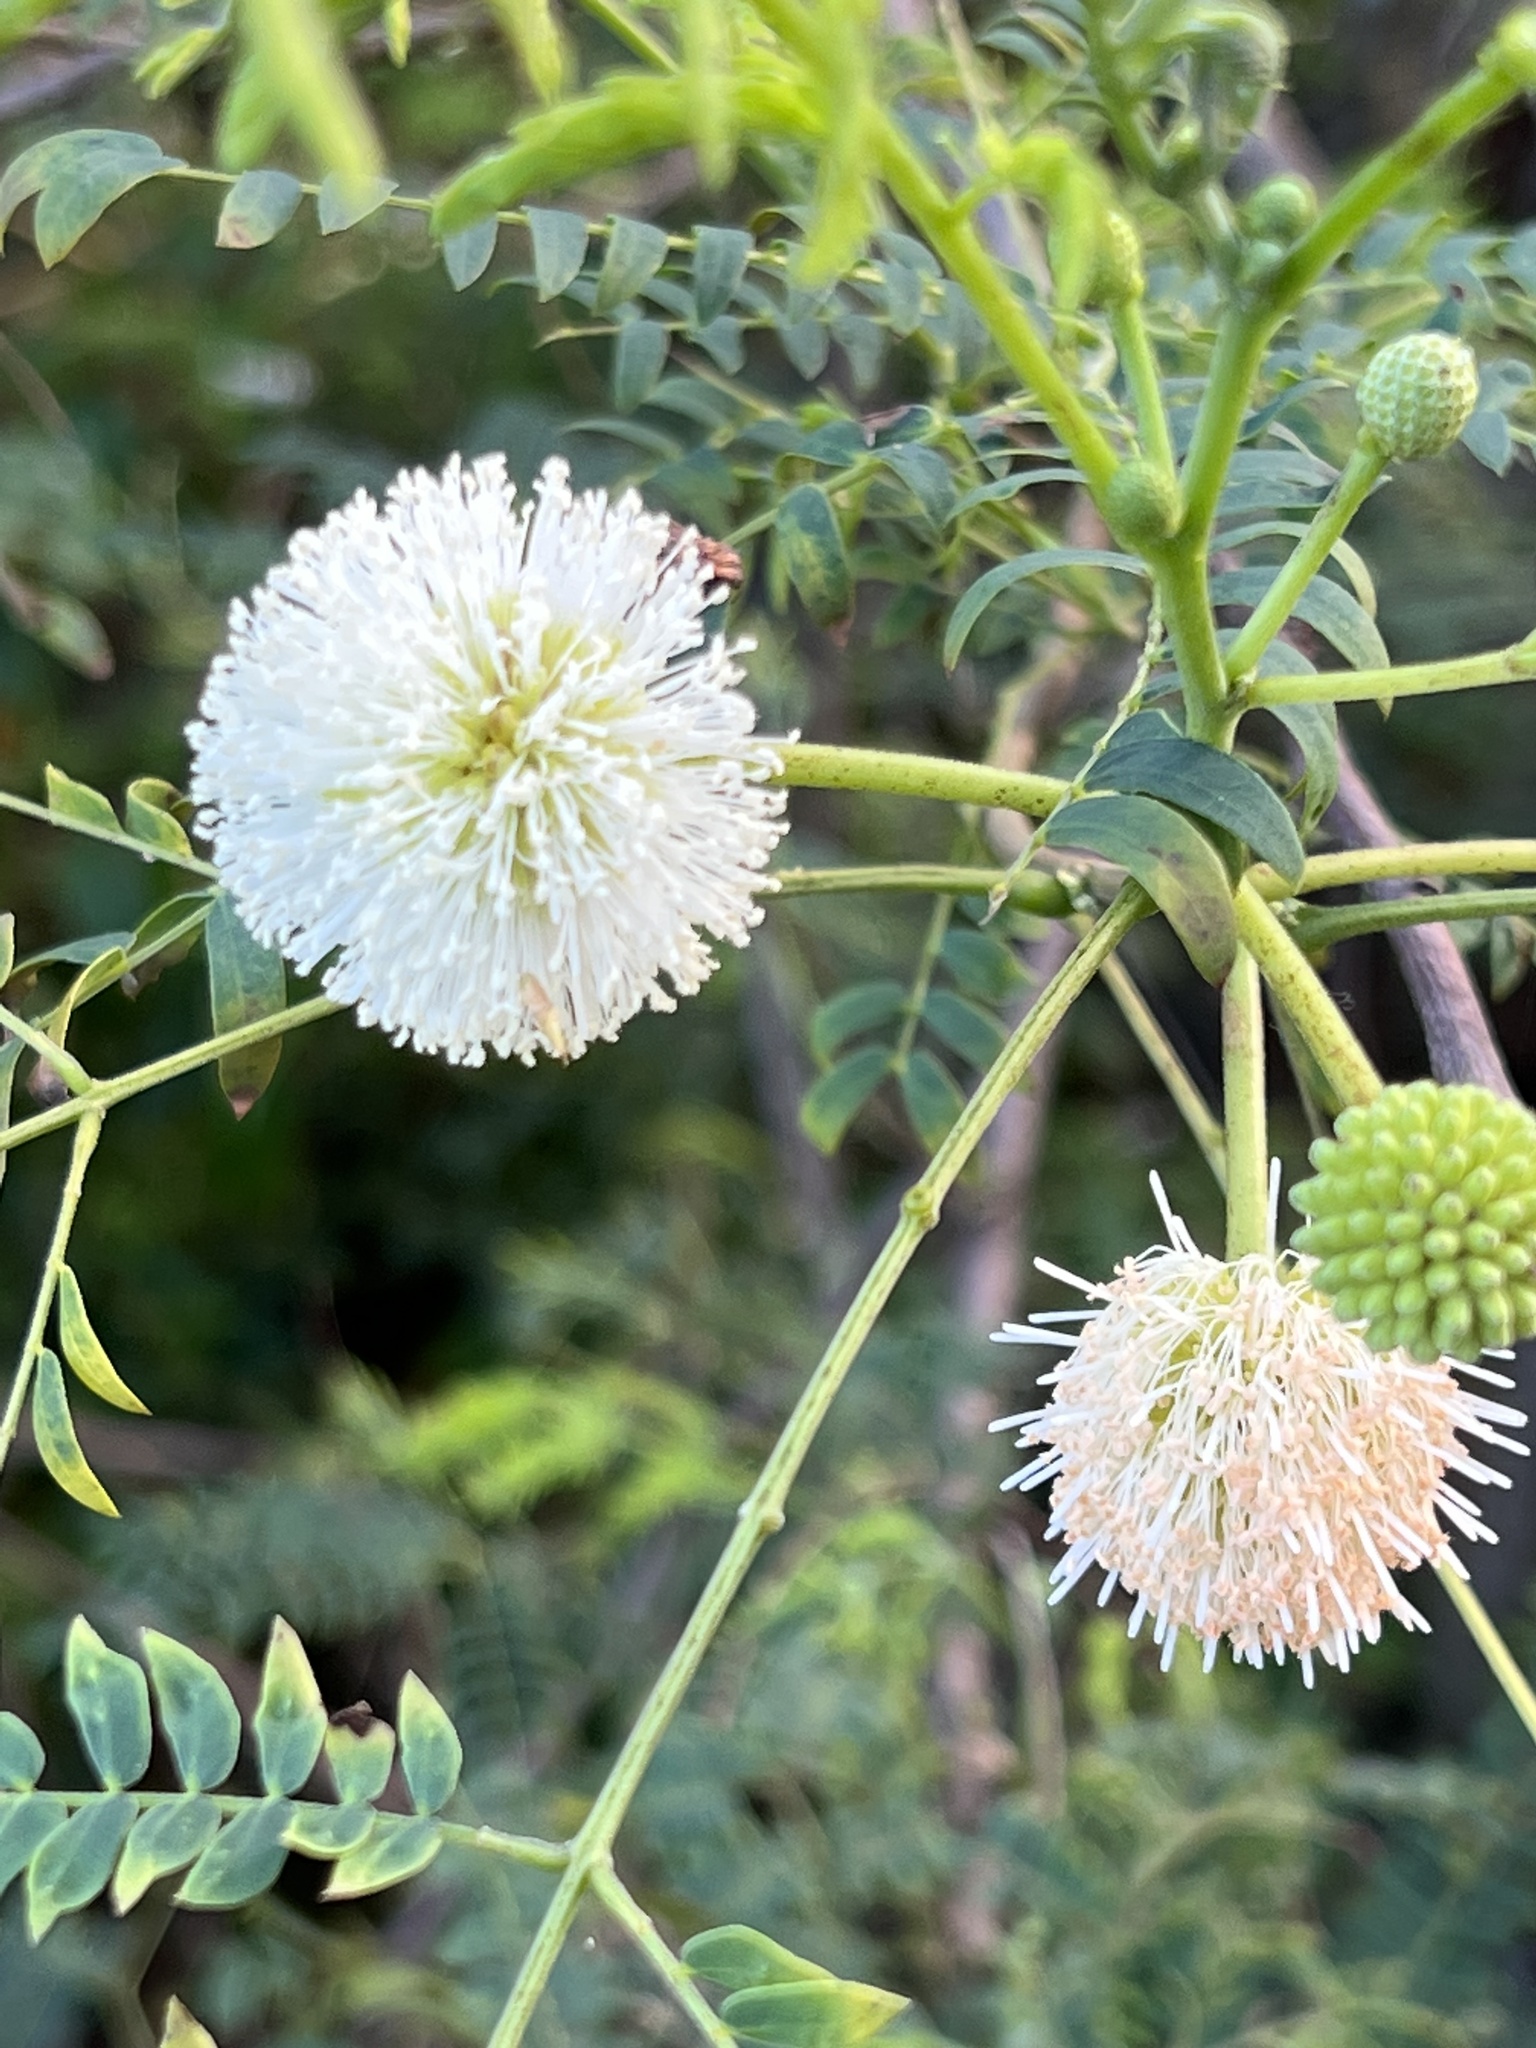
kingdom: Plantae
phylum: Tracheophyta
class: Magnoliopsida
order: Fabales
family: Fabaceae
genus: Leucaena
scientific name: Leucaena leucocephala
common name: White leadtree
